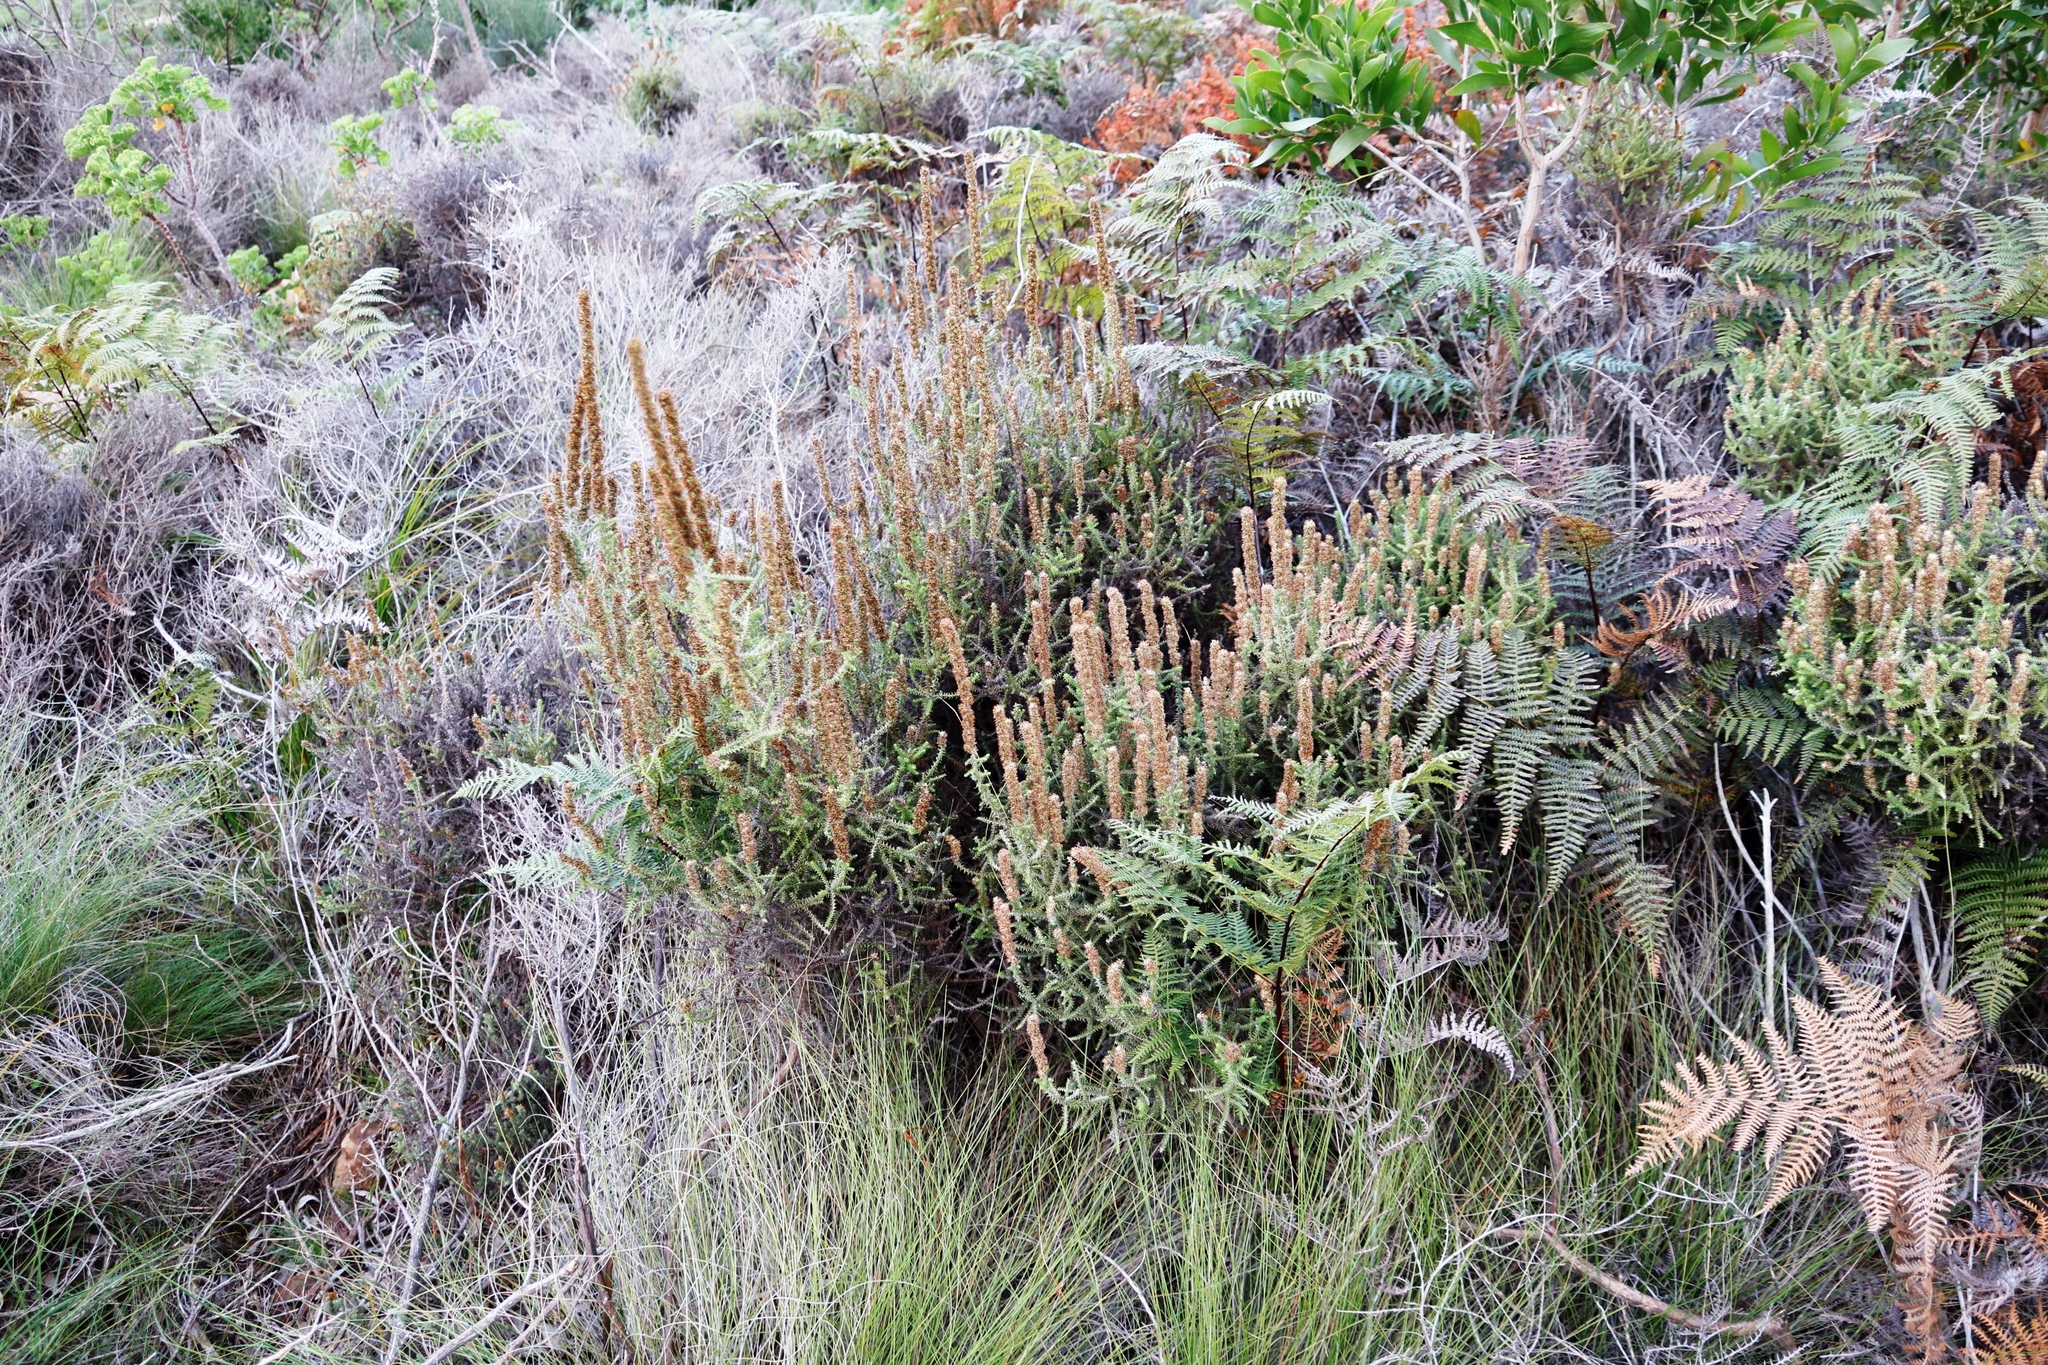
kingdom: Plantae
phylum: Tracheophyta
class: Magnoliopsida
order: Asterales
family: Asteraceae
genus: Seriphium
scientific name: Seriphium cinereum
